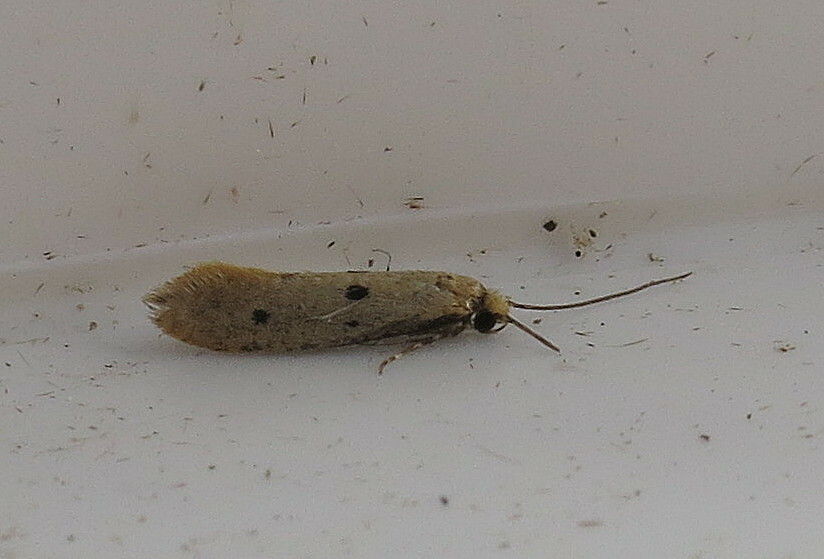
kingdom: Animalia
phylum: Arthropoda
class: Insecta
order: Lepidoptera
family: Tineidae
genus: Tinea
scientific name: Tinea trinotella
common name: Bird's-nest moth
